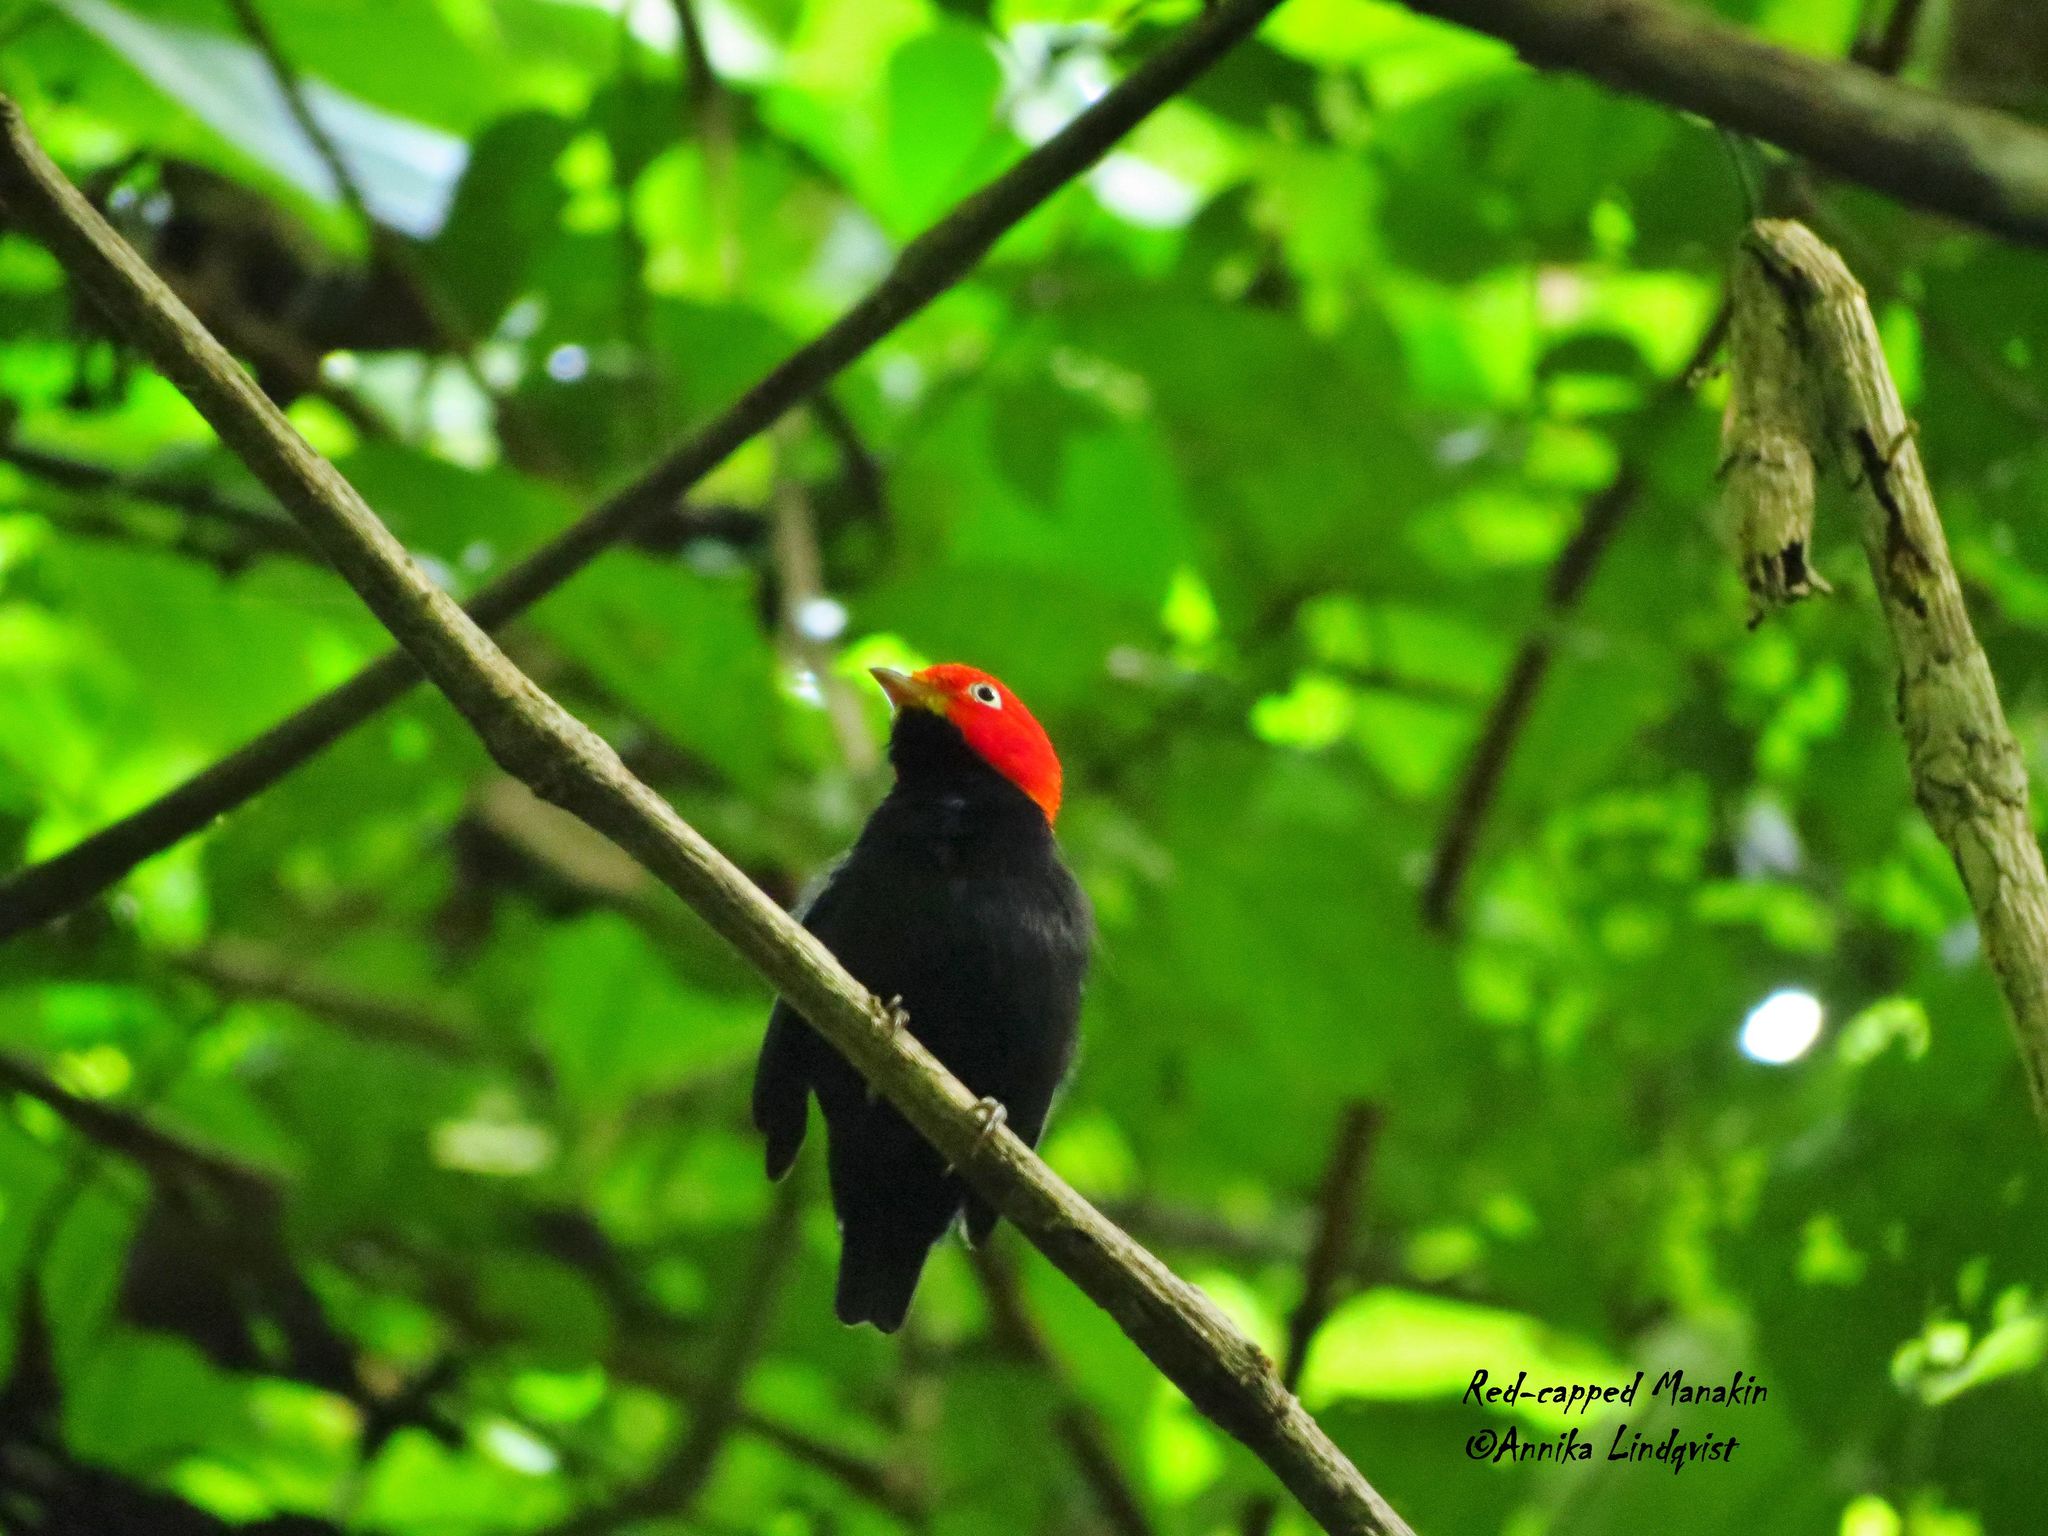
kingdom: Animalia
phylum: Chordata
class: Aves
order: Passeriformes
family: Pipridae
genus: Pipra
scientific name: Pipra mentalis
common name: Red-capped manakin
